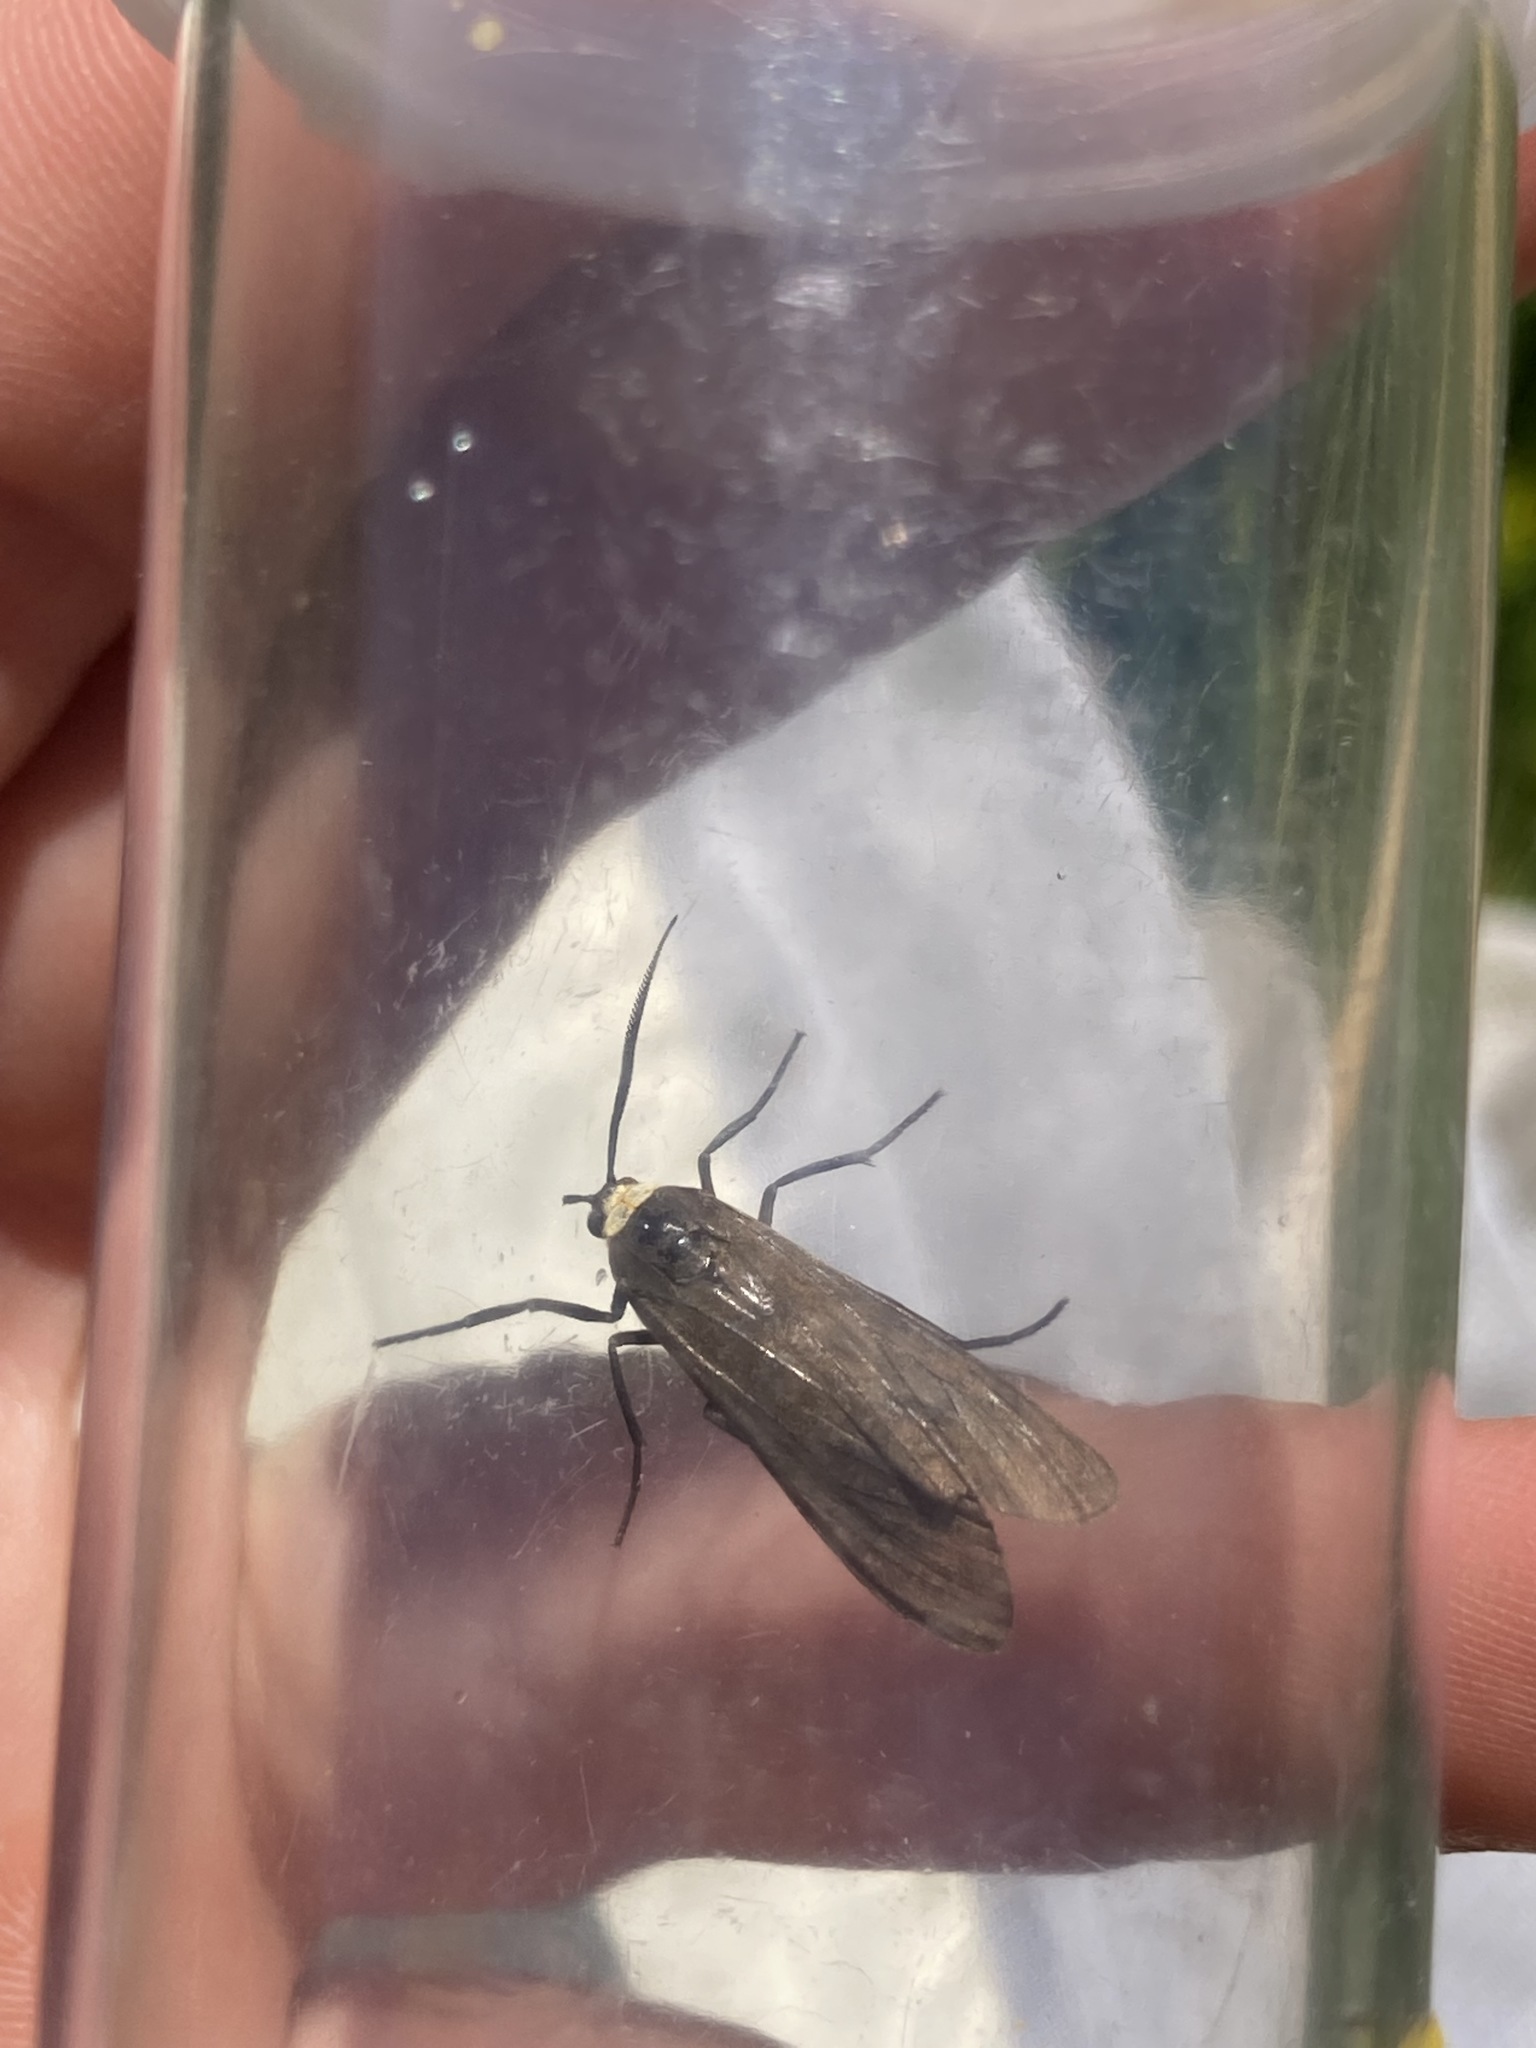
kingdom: Animalia
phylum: Arthropoda
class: Insecta
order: Lepidoptera
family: Erebidae
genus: Cisseps
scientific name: Cisseps fulvicollis
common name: Yellow-collared scape moth
